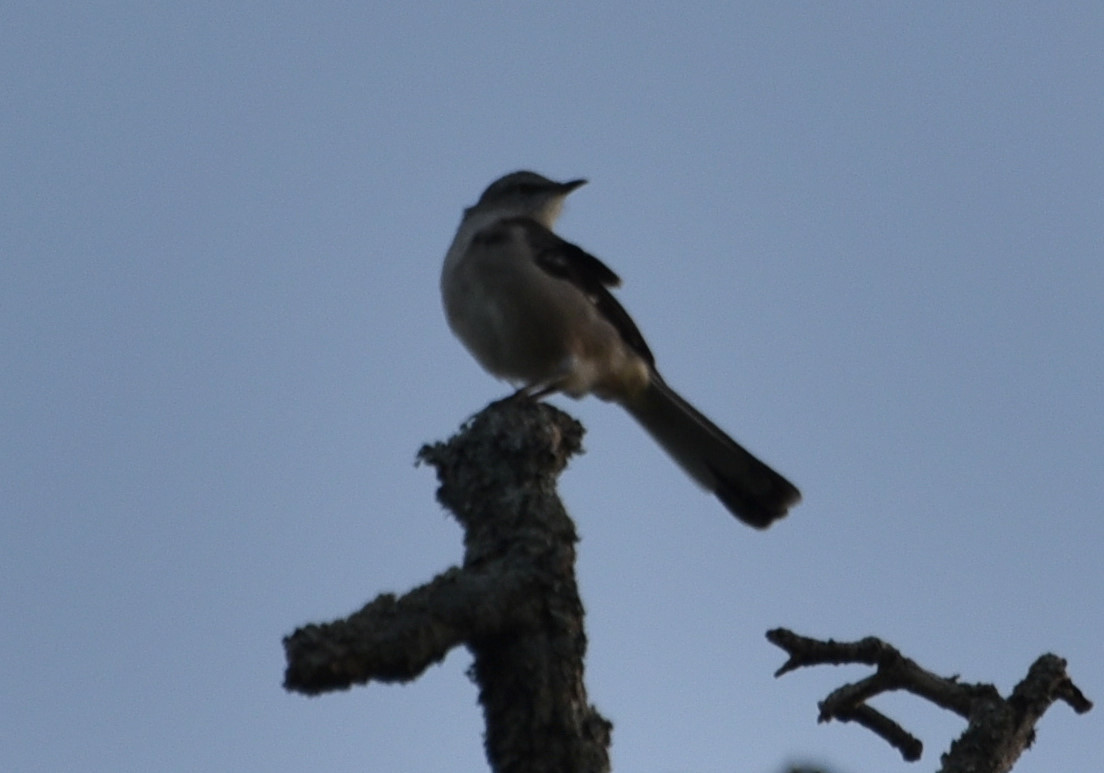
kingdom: Animalia
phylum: Chordata
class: Aves
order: Passeriformes
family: Mimidae
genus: Mimus
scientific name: Mimus polyglottos
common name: Northern mockingbird
